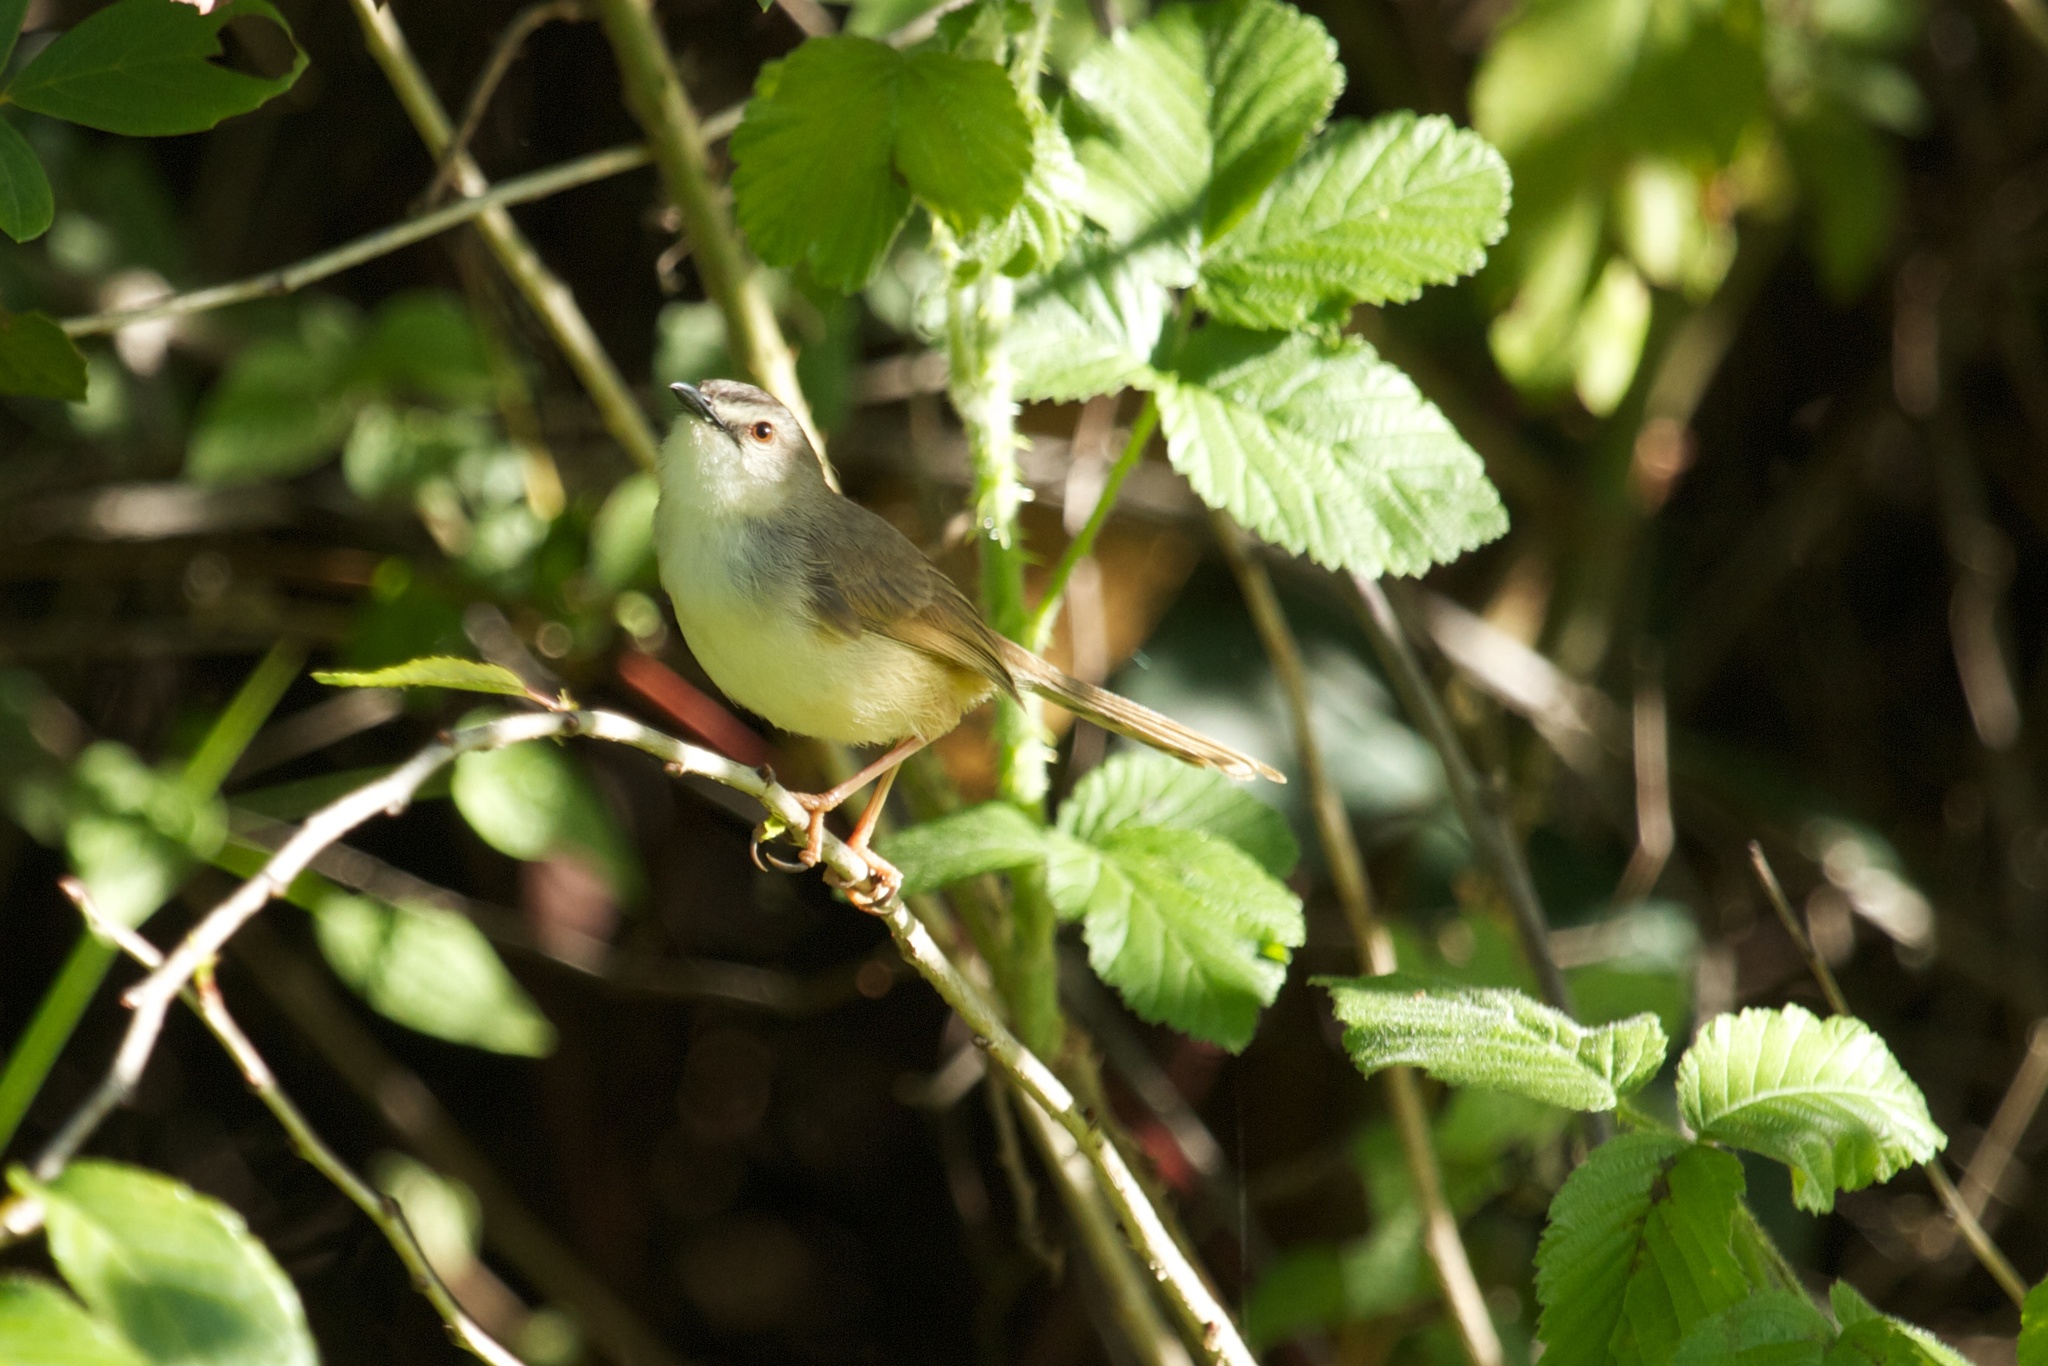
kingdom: Animalia
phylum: Chordata
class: Aves
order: Passeriformes
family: Cisticolidae
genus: Prinia
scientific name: Prinia subflava
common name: Tawny-flanked prinia
